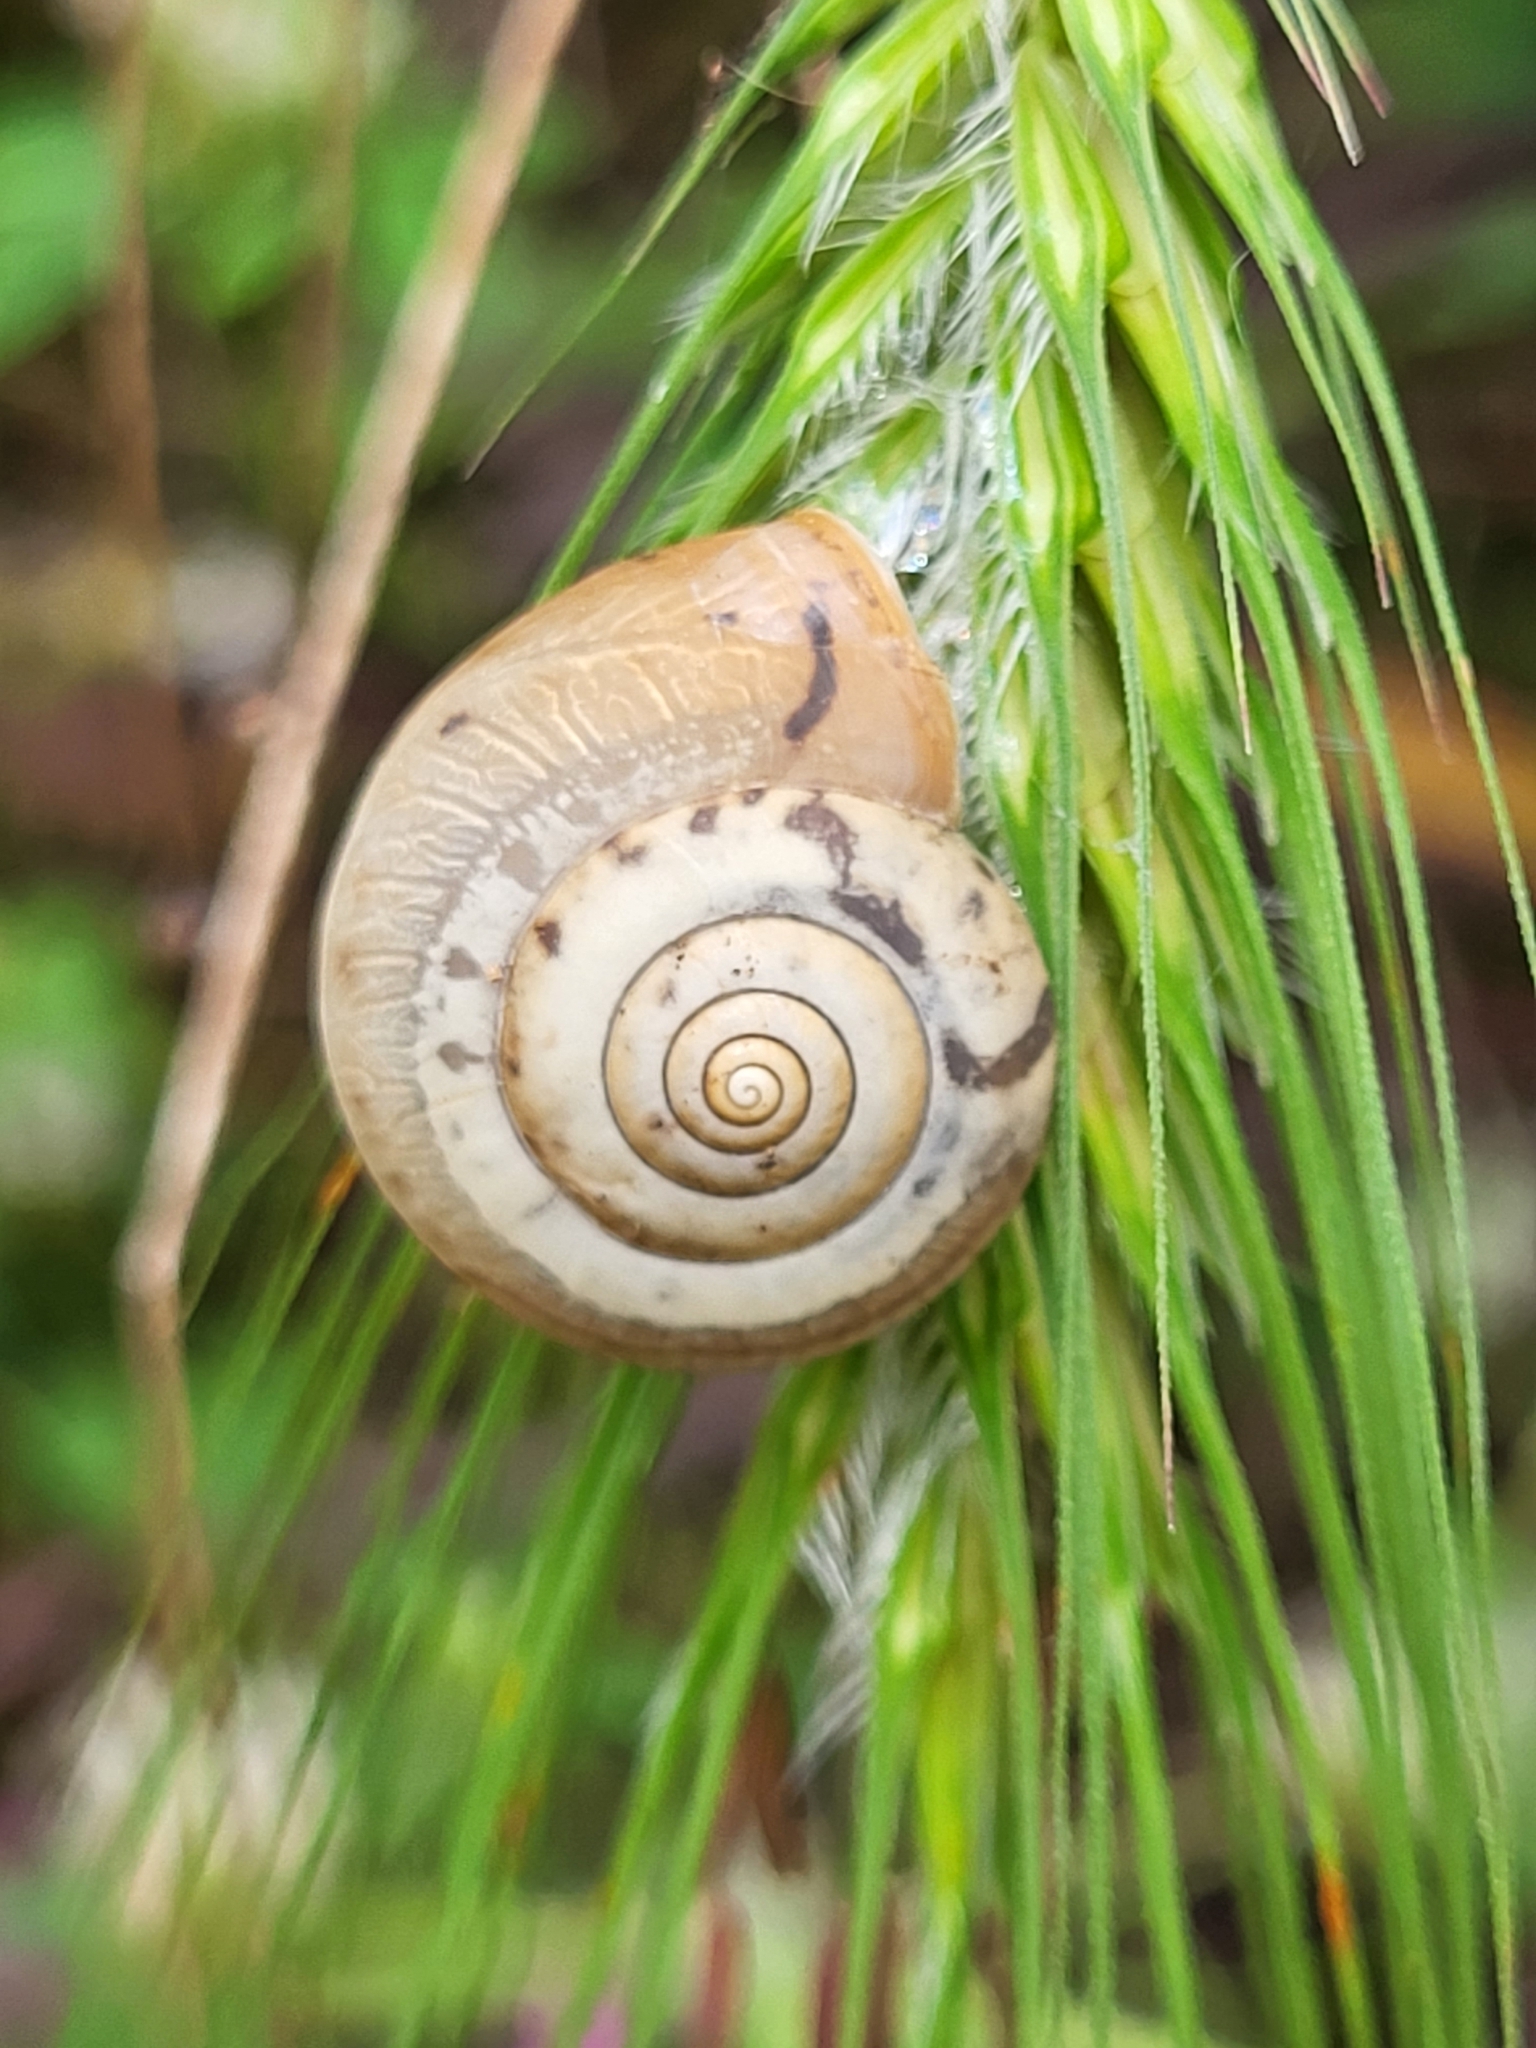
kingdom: Animalia
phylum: Mollusca
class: Gastropoda
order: Stylommatophora
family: Hygromiidae
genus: Monacha
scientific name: Monacha
